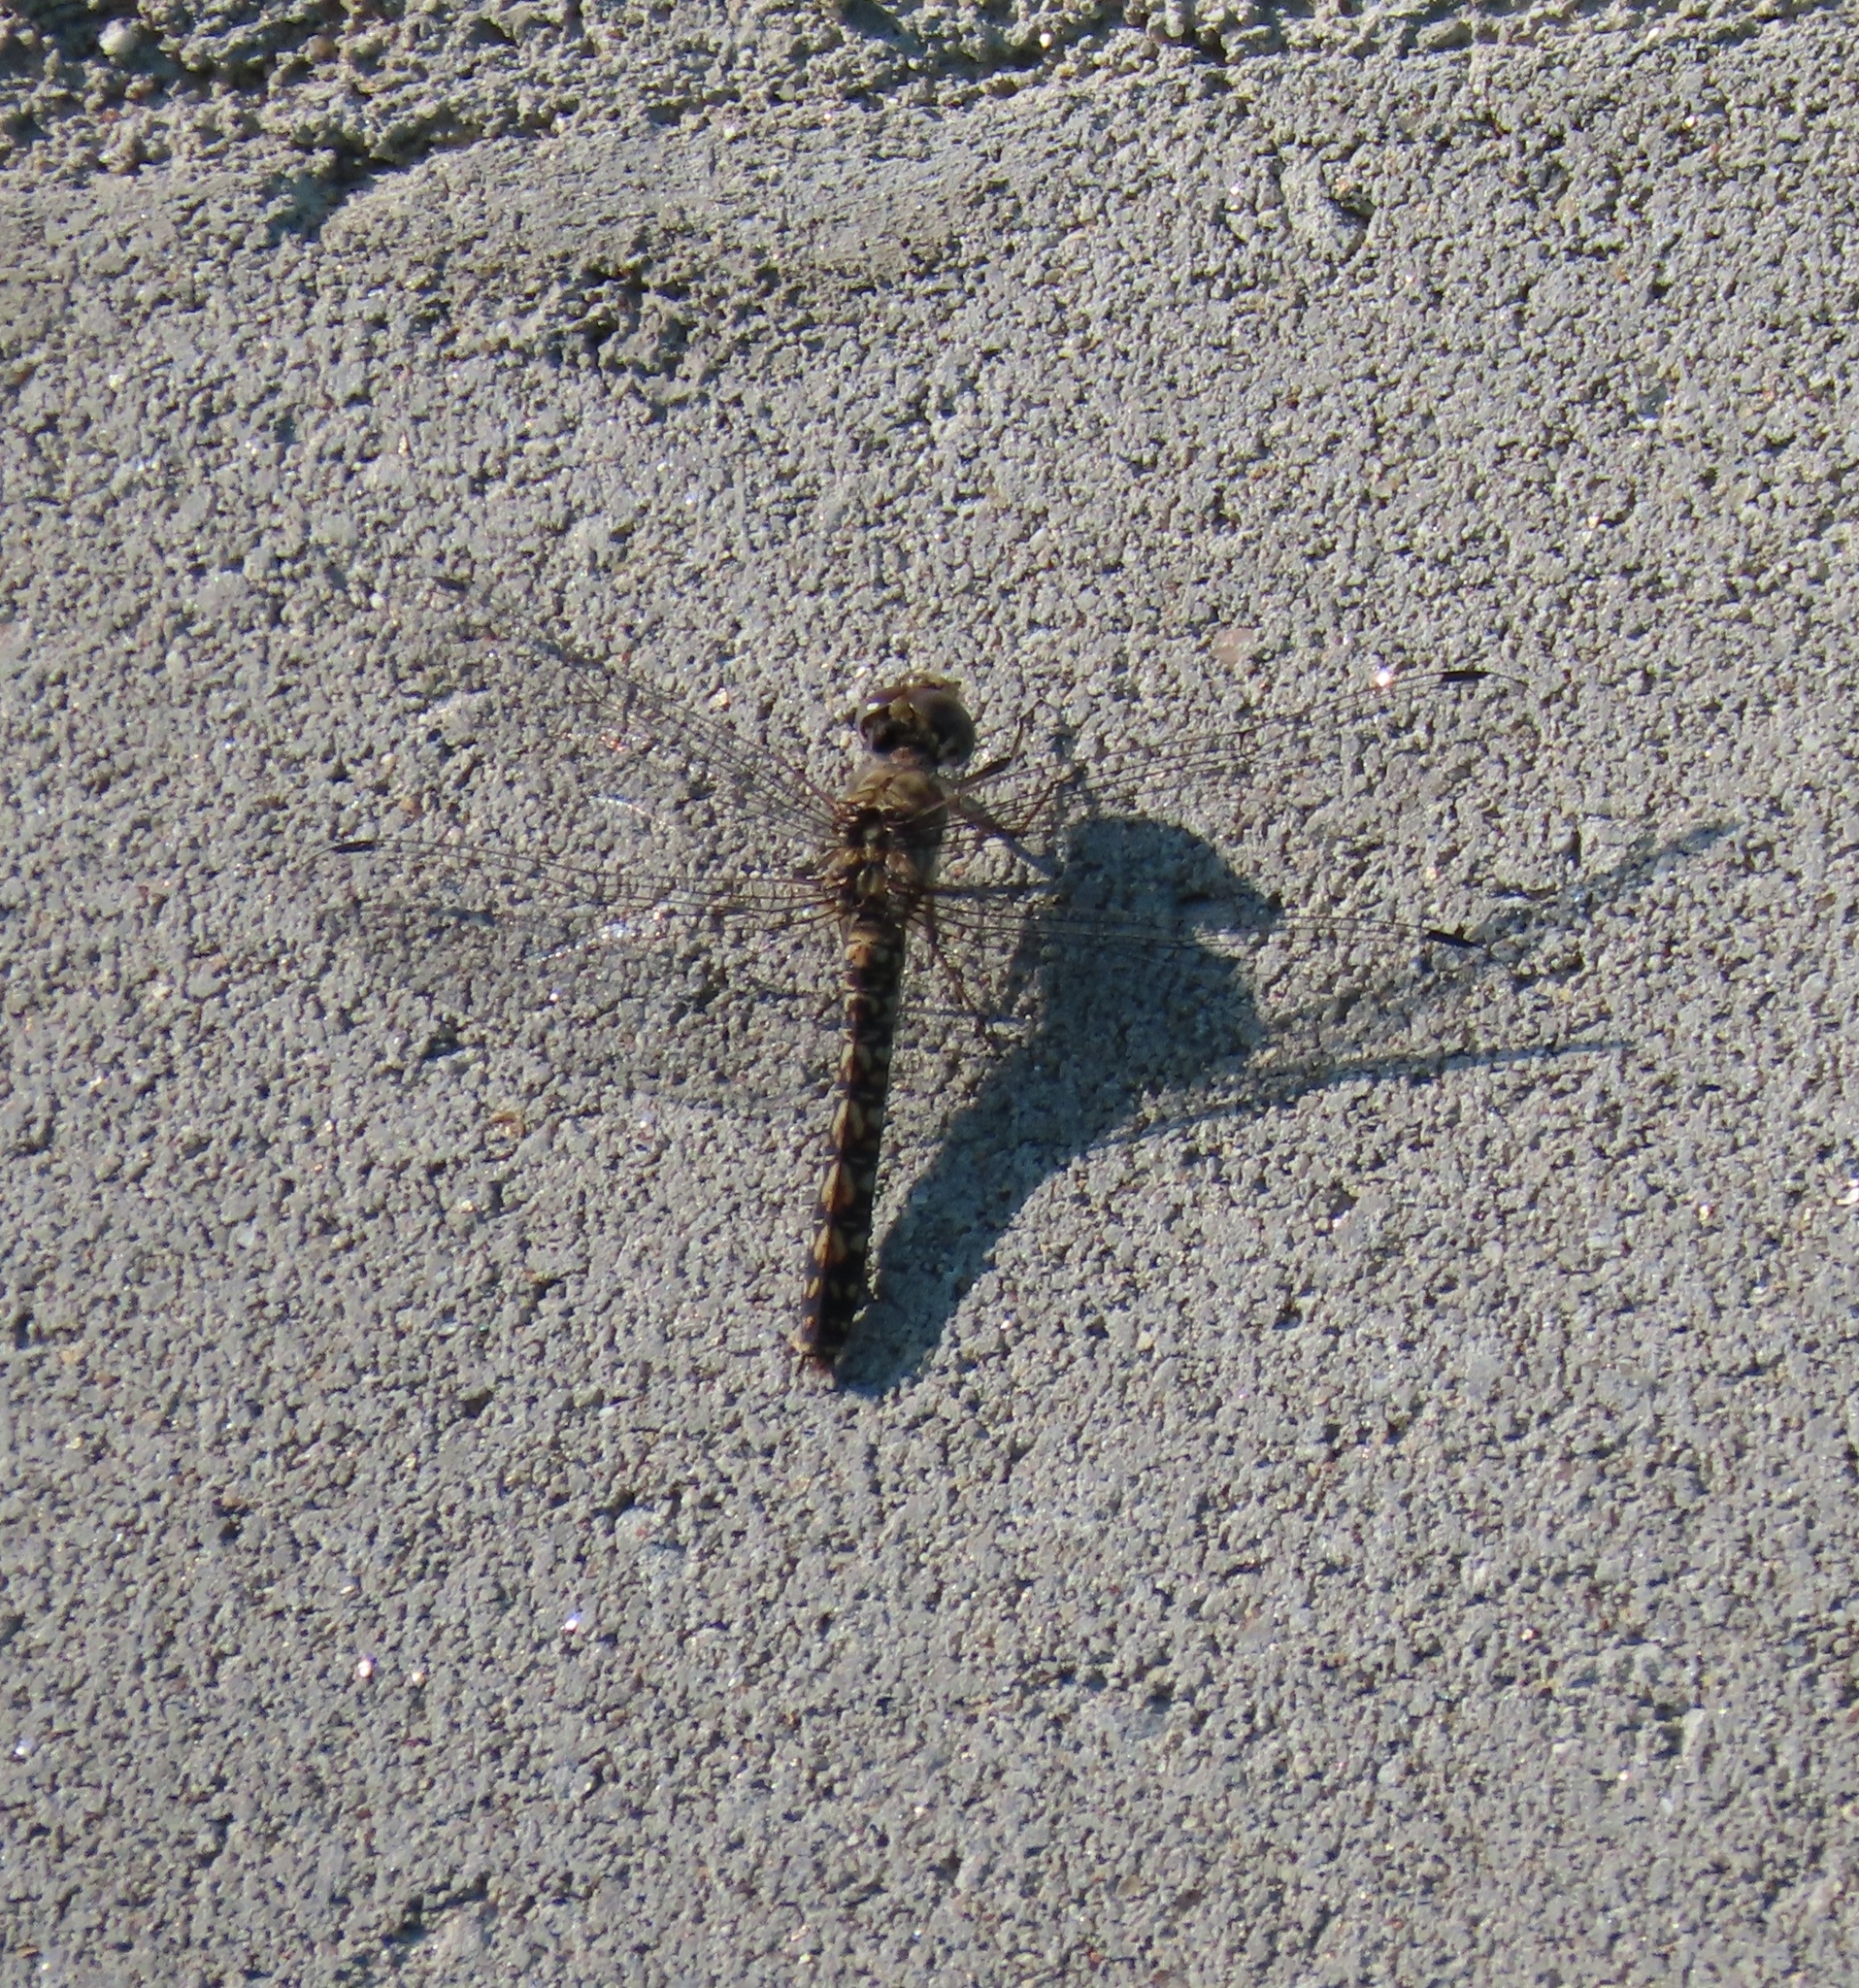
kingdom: Animalia
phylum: Arthropoda
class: Insecta
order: Odonata
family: Libellulidae
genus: Paltothemis
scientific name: Paltothemis lineatipes
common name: Red rock skimmer
